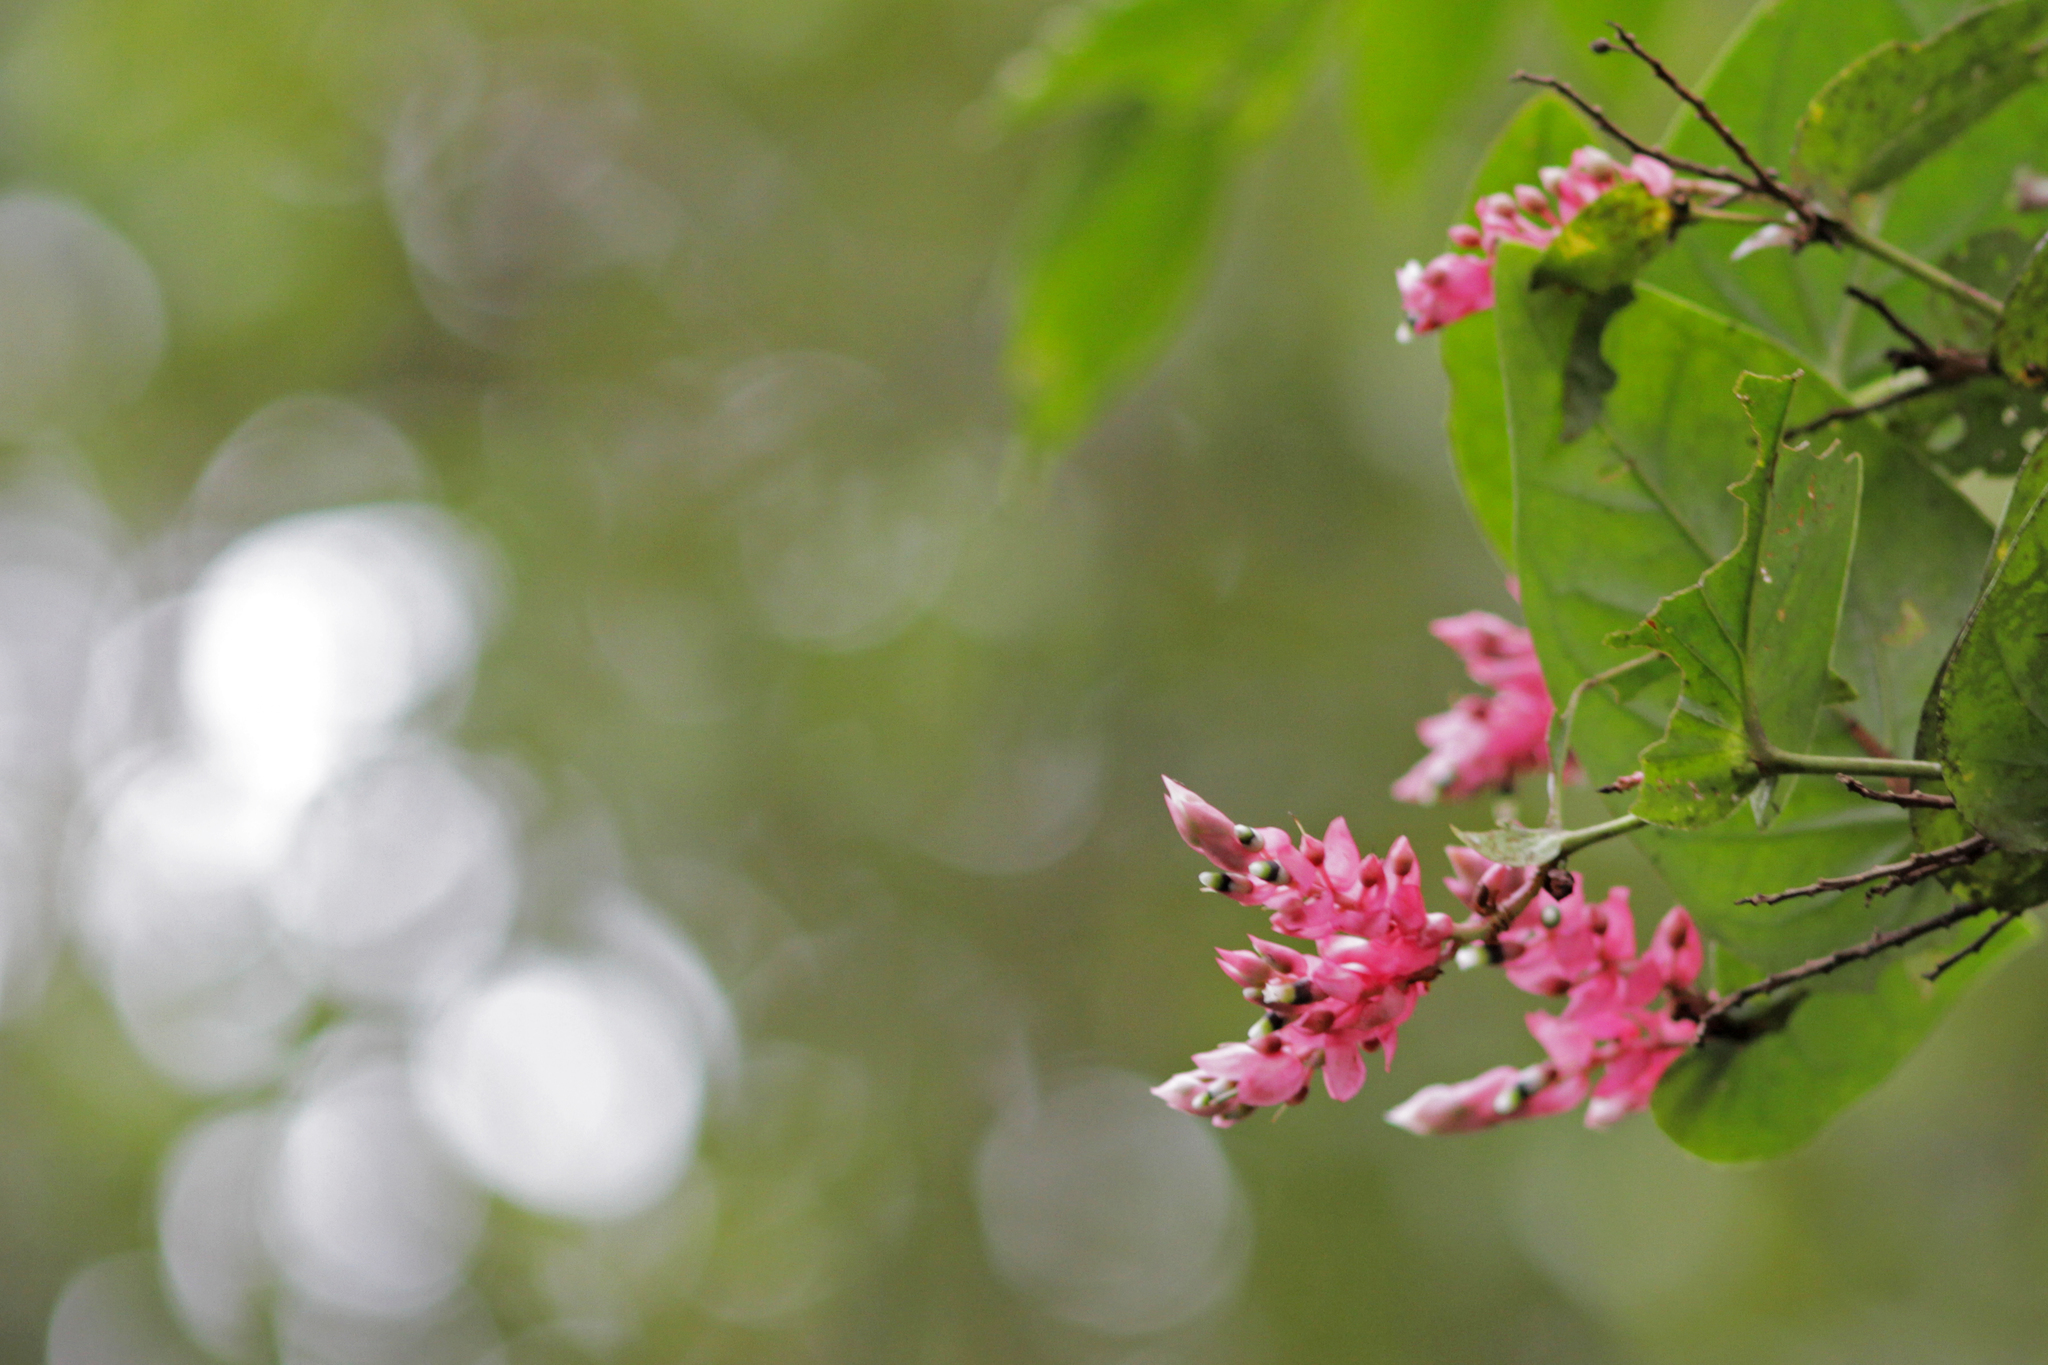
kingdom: Plantae
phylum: Tracheophyta
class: Magnoliopsida
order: Ericales
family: Ericaceae
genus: Cavendishia
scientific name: Cavendishia complectens
